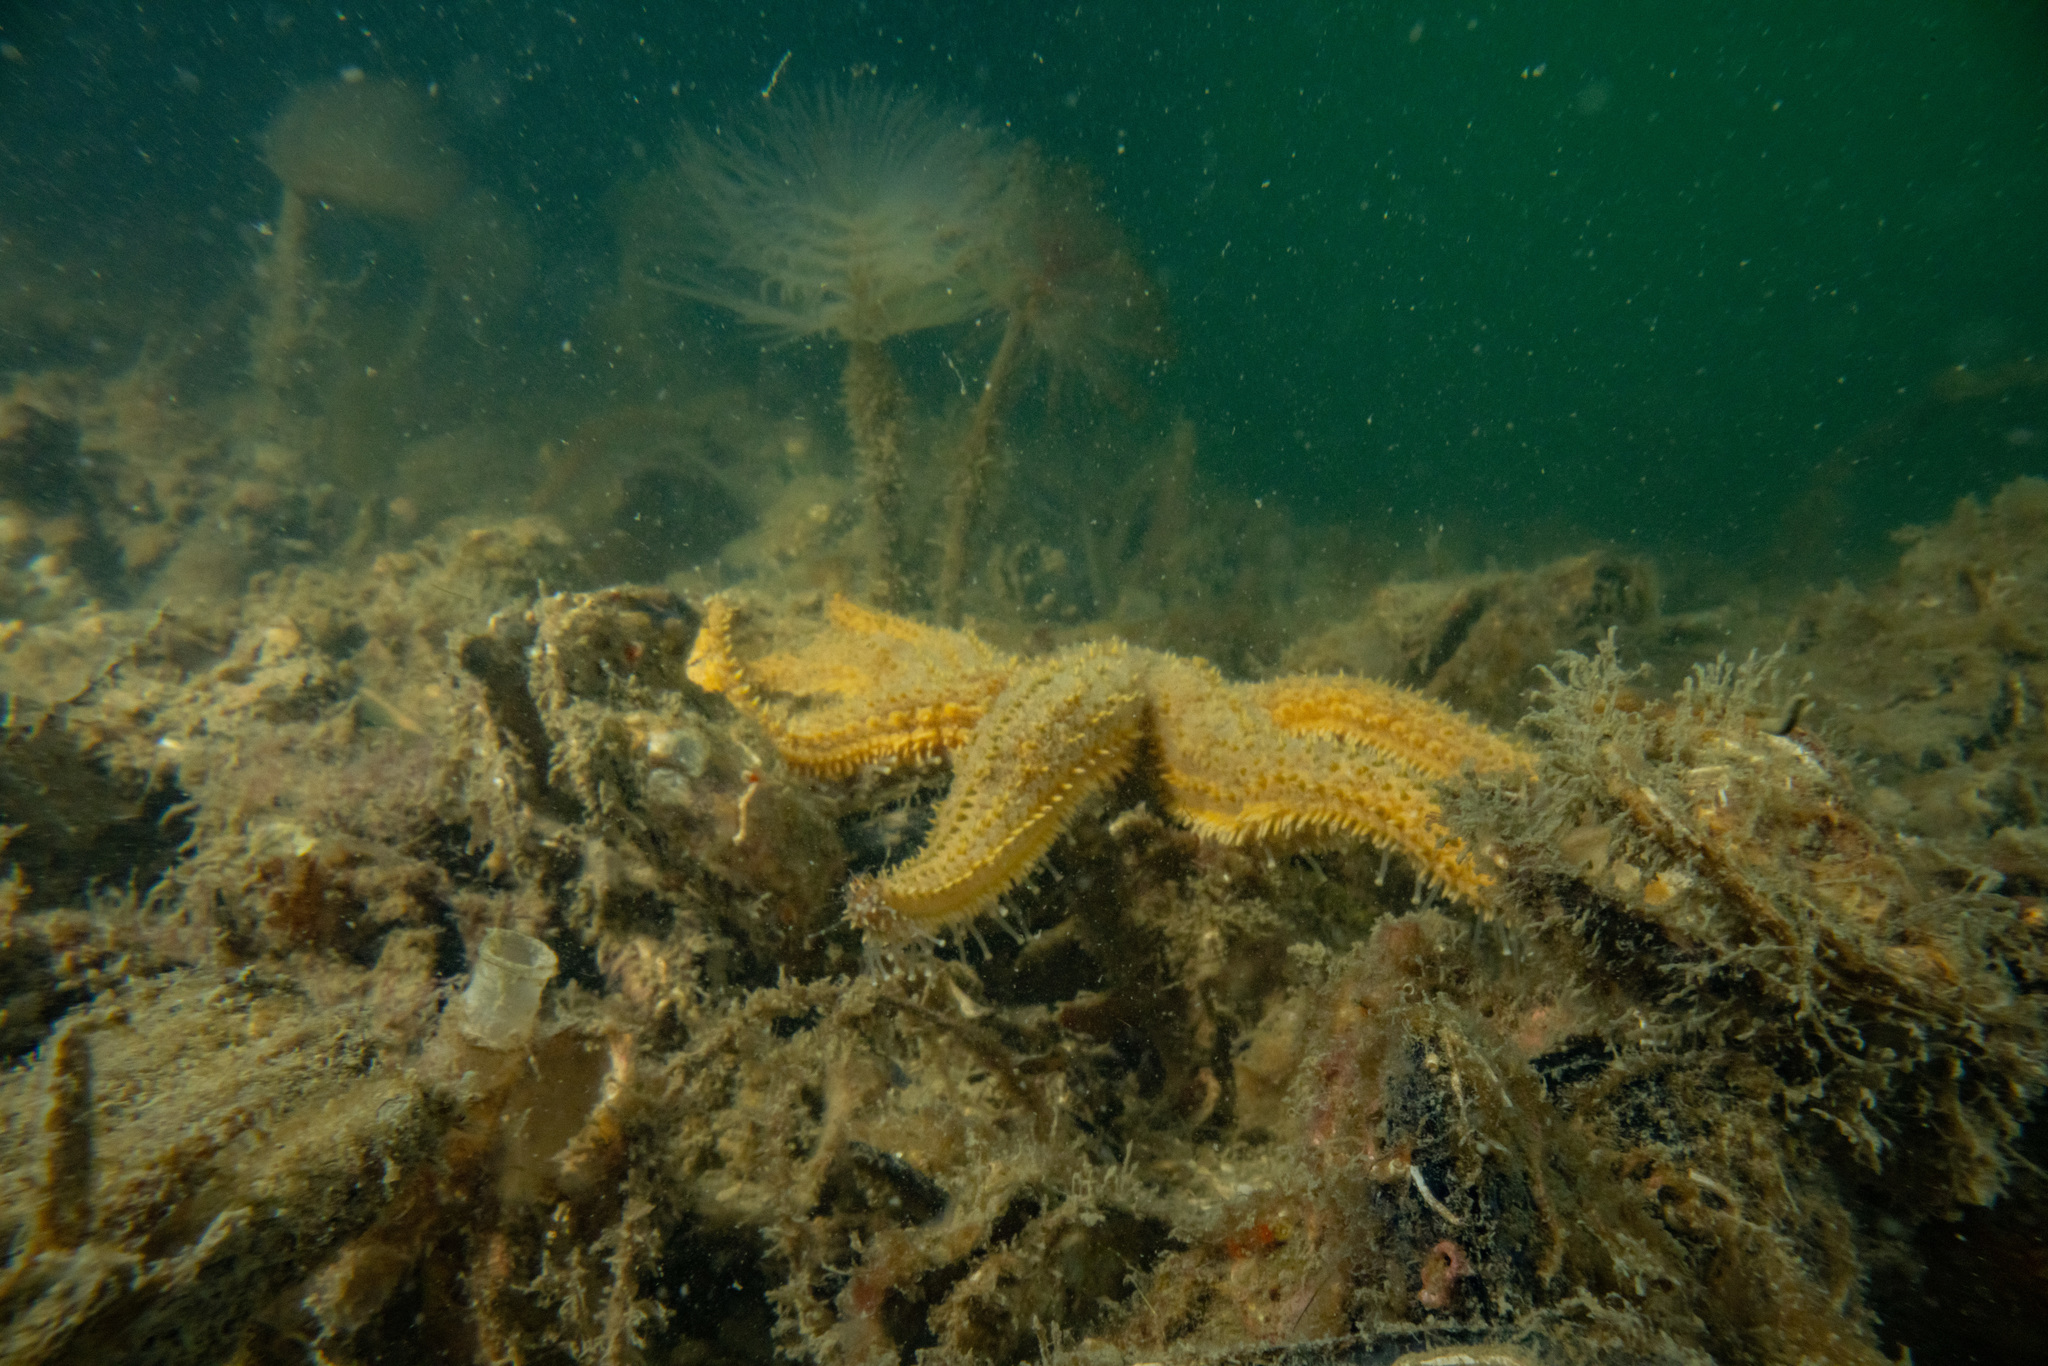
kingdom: Animalia
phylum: Echinodermata
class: Asteroidea
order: Forcipulatida
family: Asteriidae
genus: Coscinasterias
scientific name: Coscinasterias muricata
